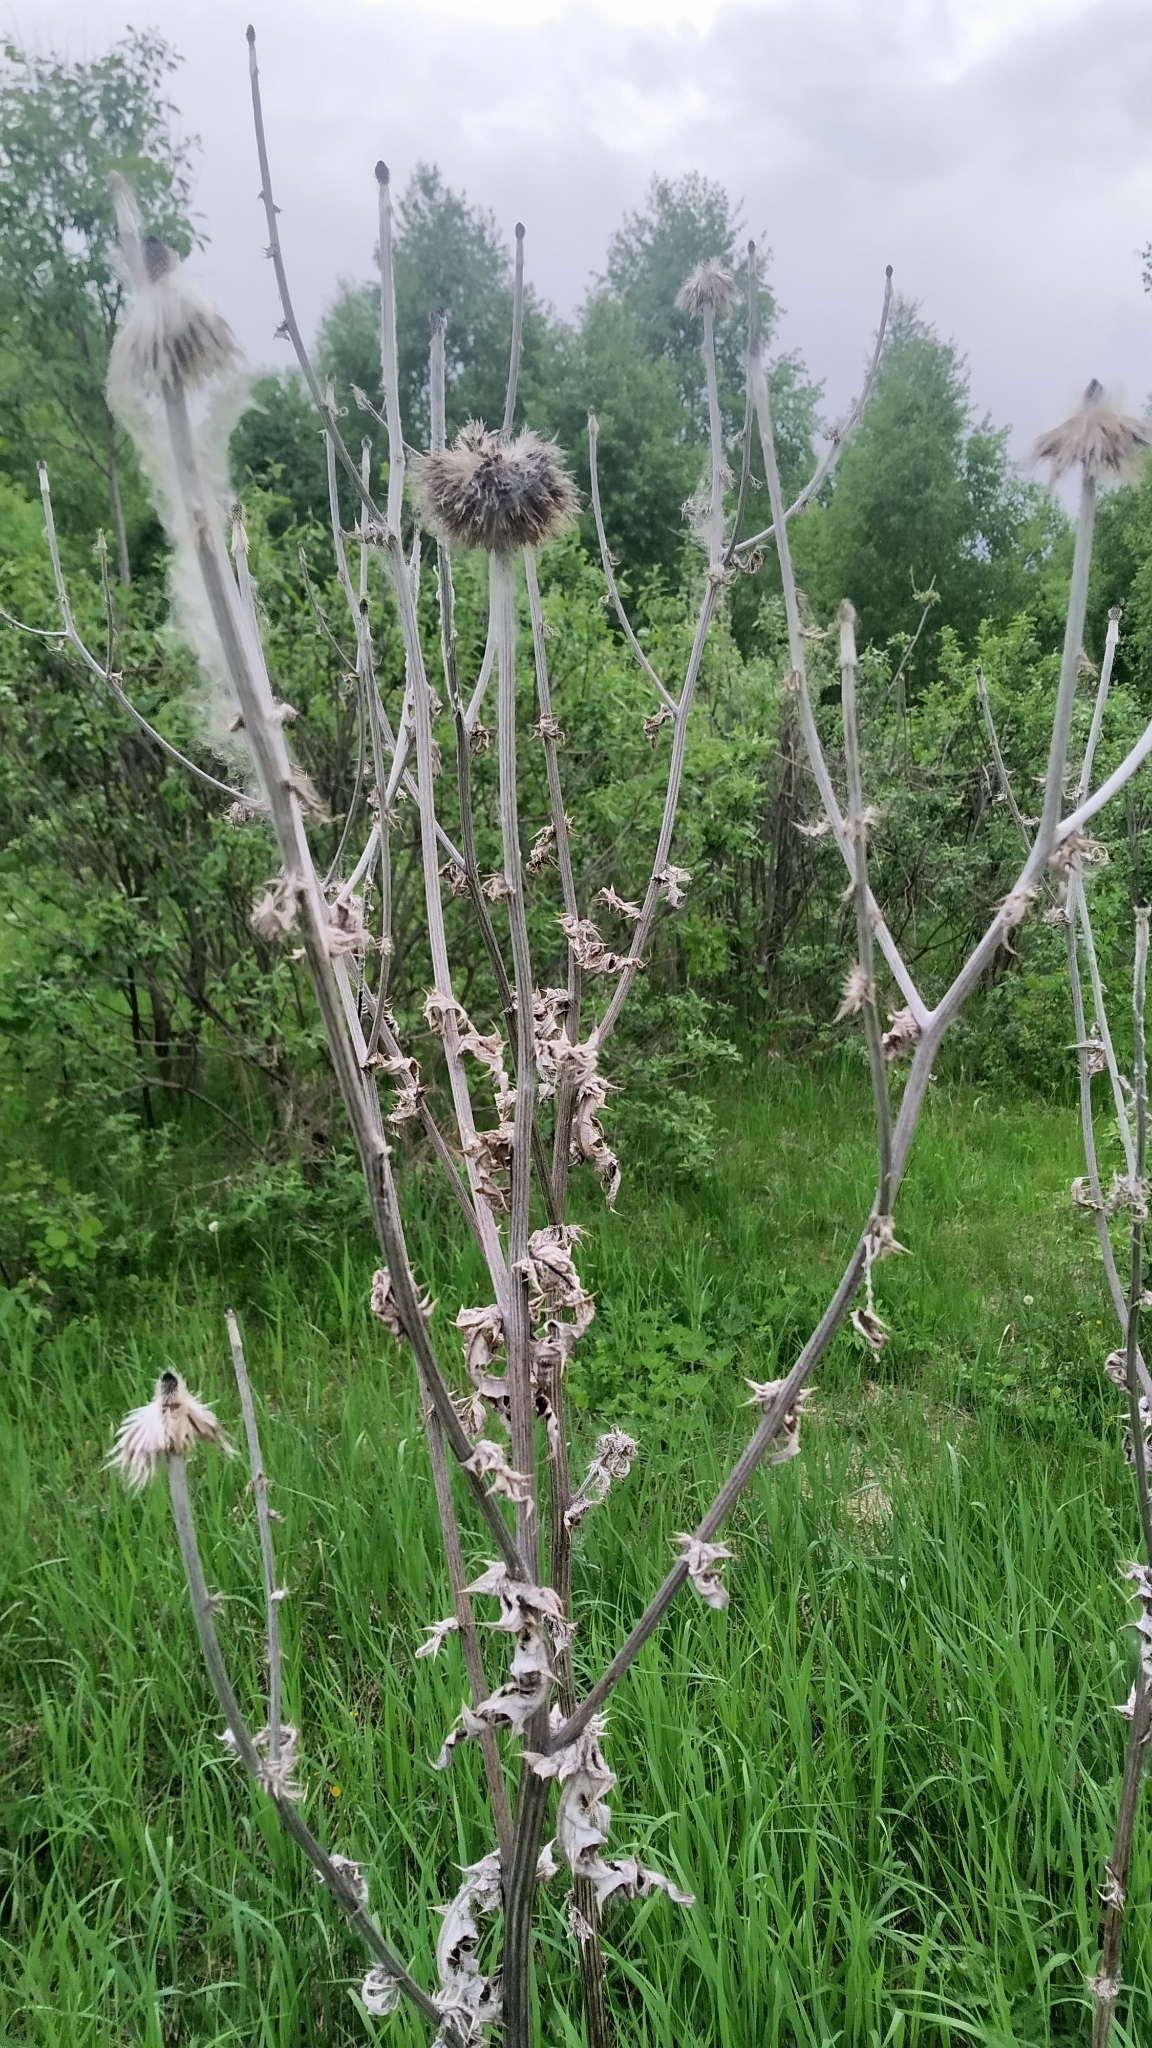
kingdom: Plantae
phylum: Tracheophyta
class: Magnoliopsida
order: Asterales
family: Asteraceae
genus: Echinops
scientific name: Echinops sphaerocephalus
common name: Glandular globe-thistle
